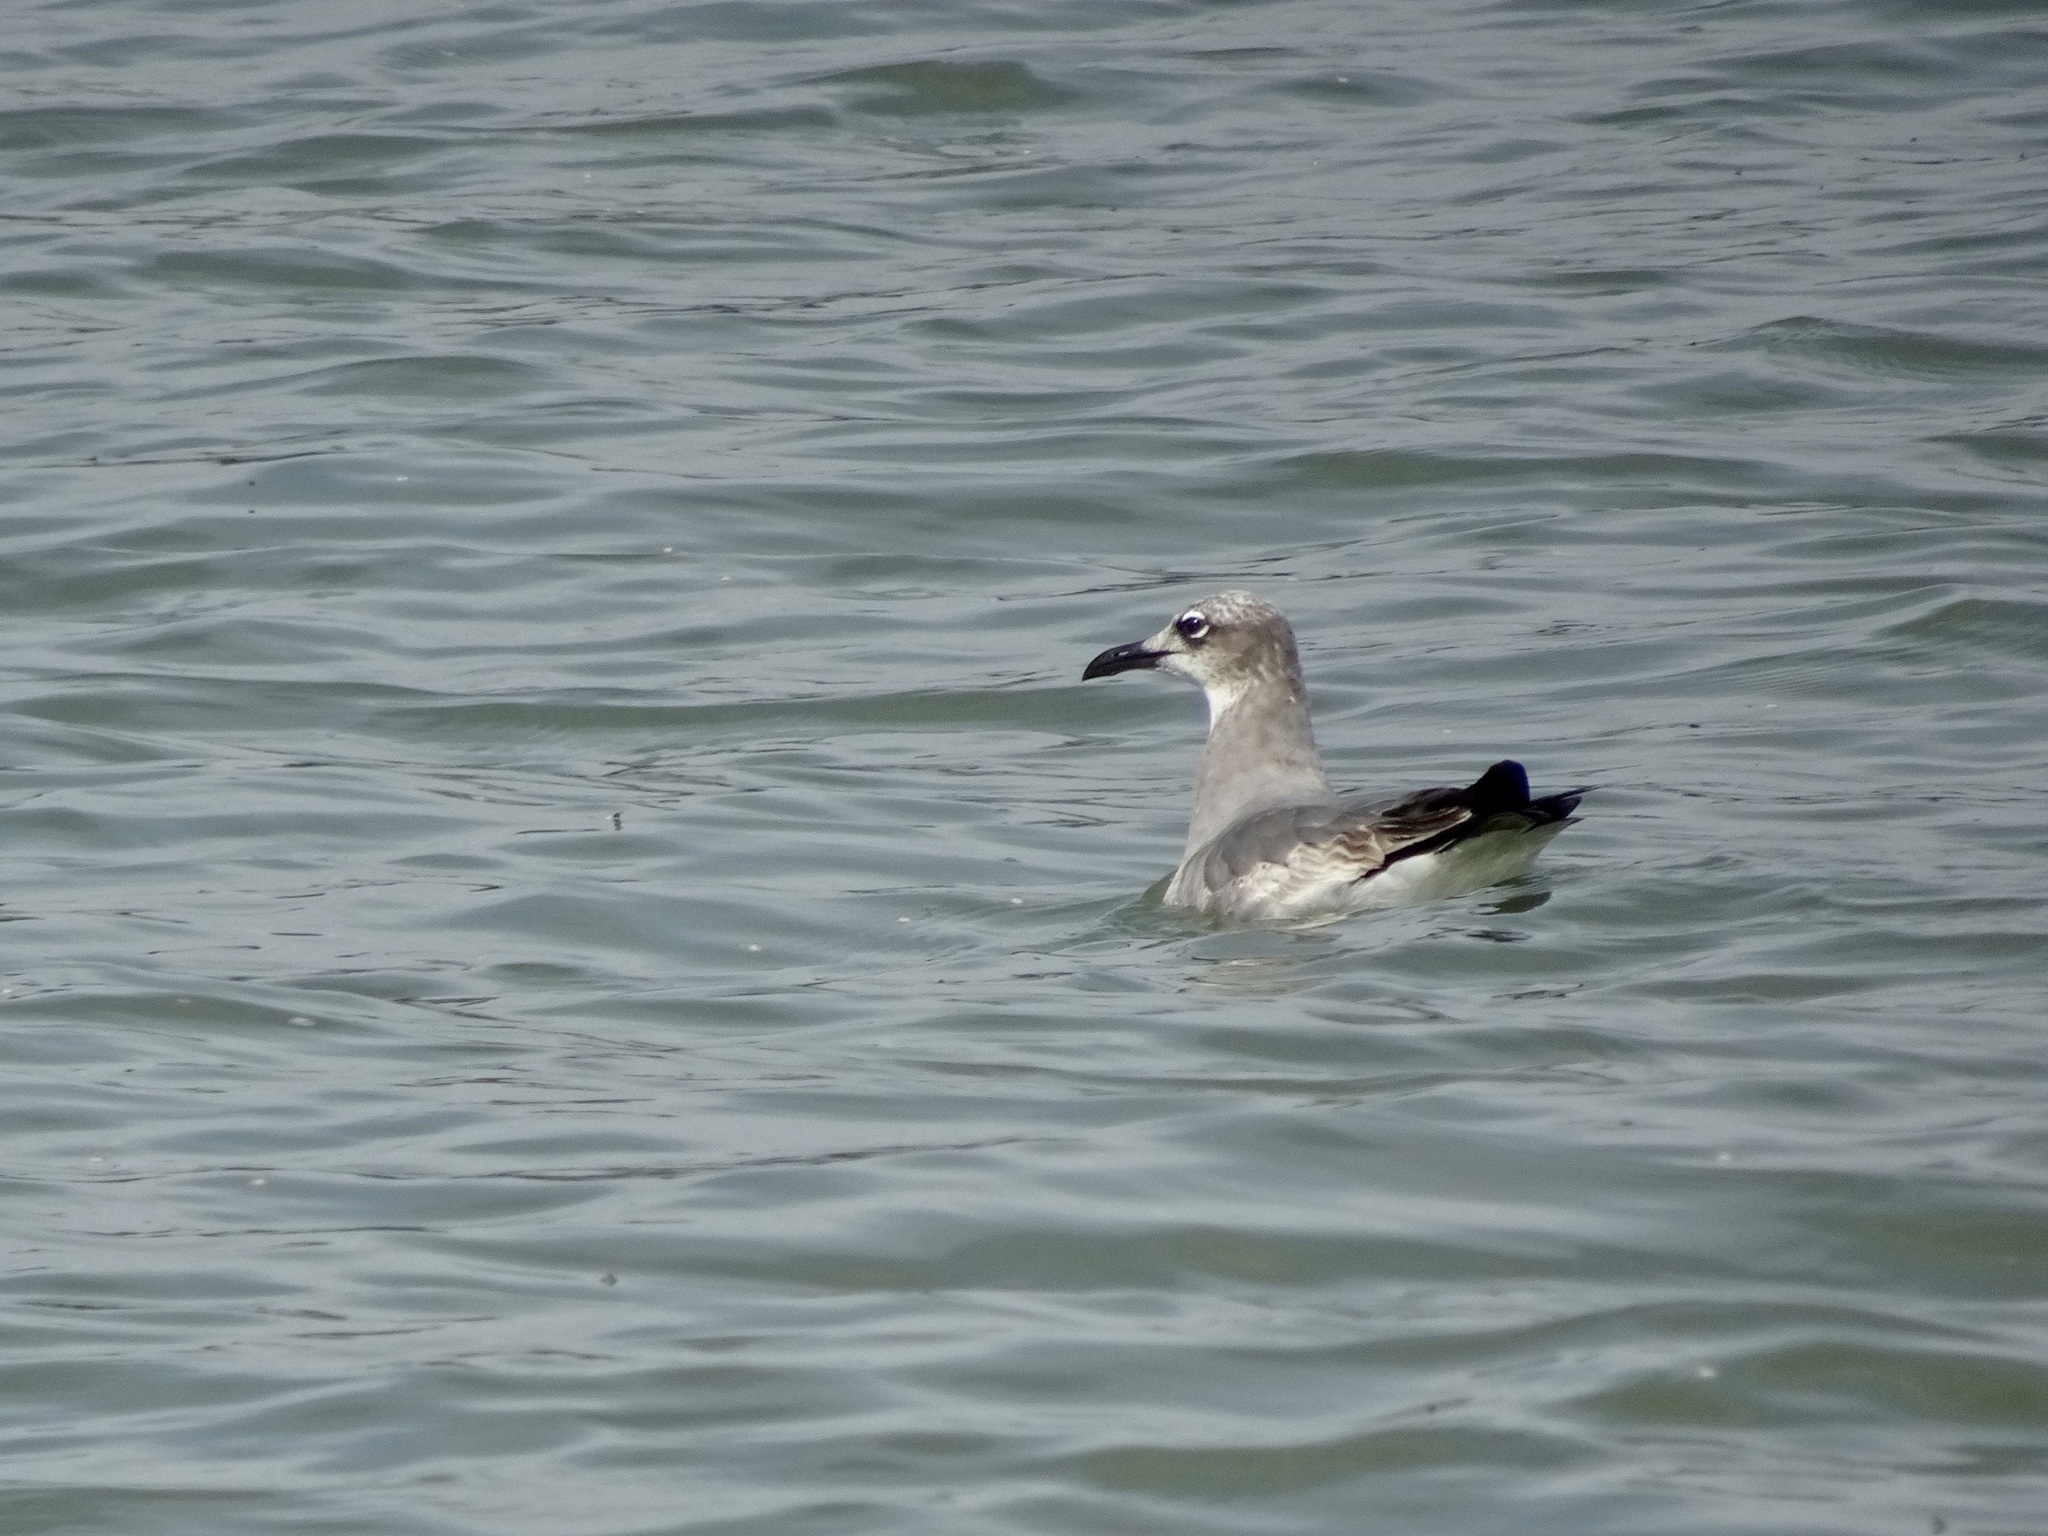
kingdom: Animalia
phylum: Chordata
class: Aves
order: Charadriiformes
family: Laridae
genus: Leucophaeus
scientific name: Leucophaeus atricilla
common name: Laughing gull
